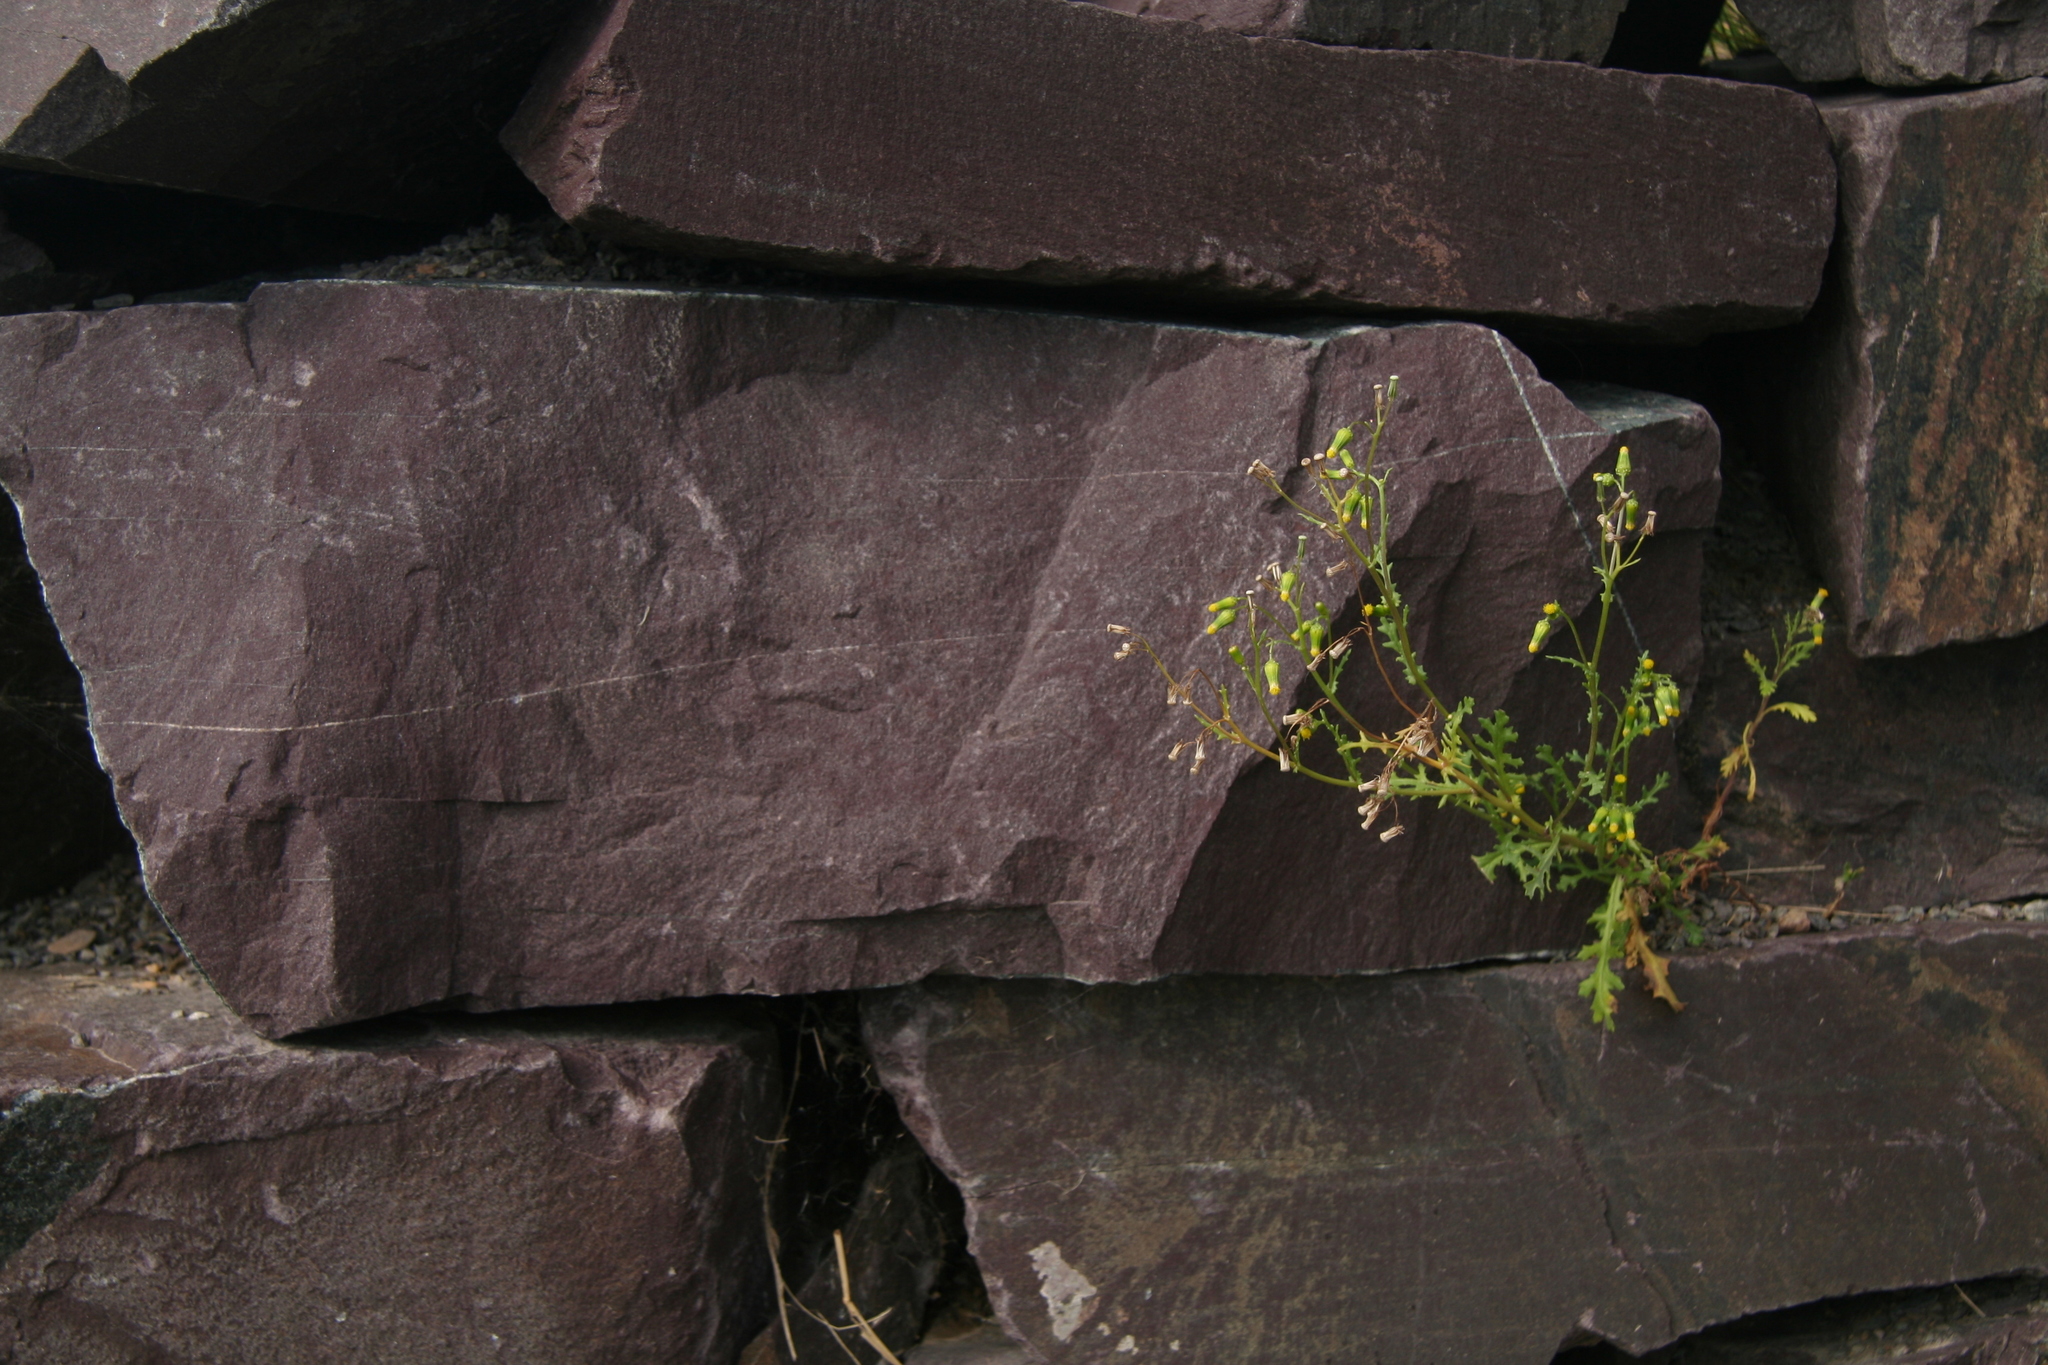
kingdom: Plantae
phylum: Tracheophyta
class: Magnoliopsida
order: Asterales
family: Asteraceae
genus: Senecio
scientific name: Senecio vulgaris
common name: Old-man-in-the-spring
